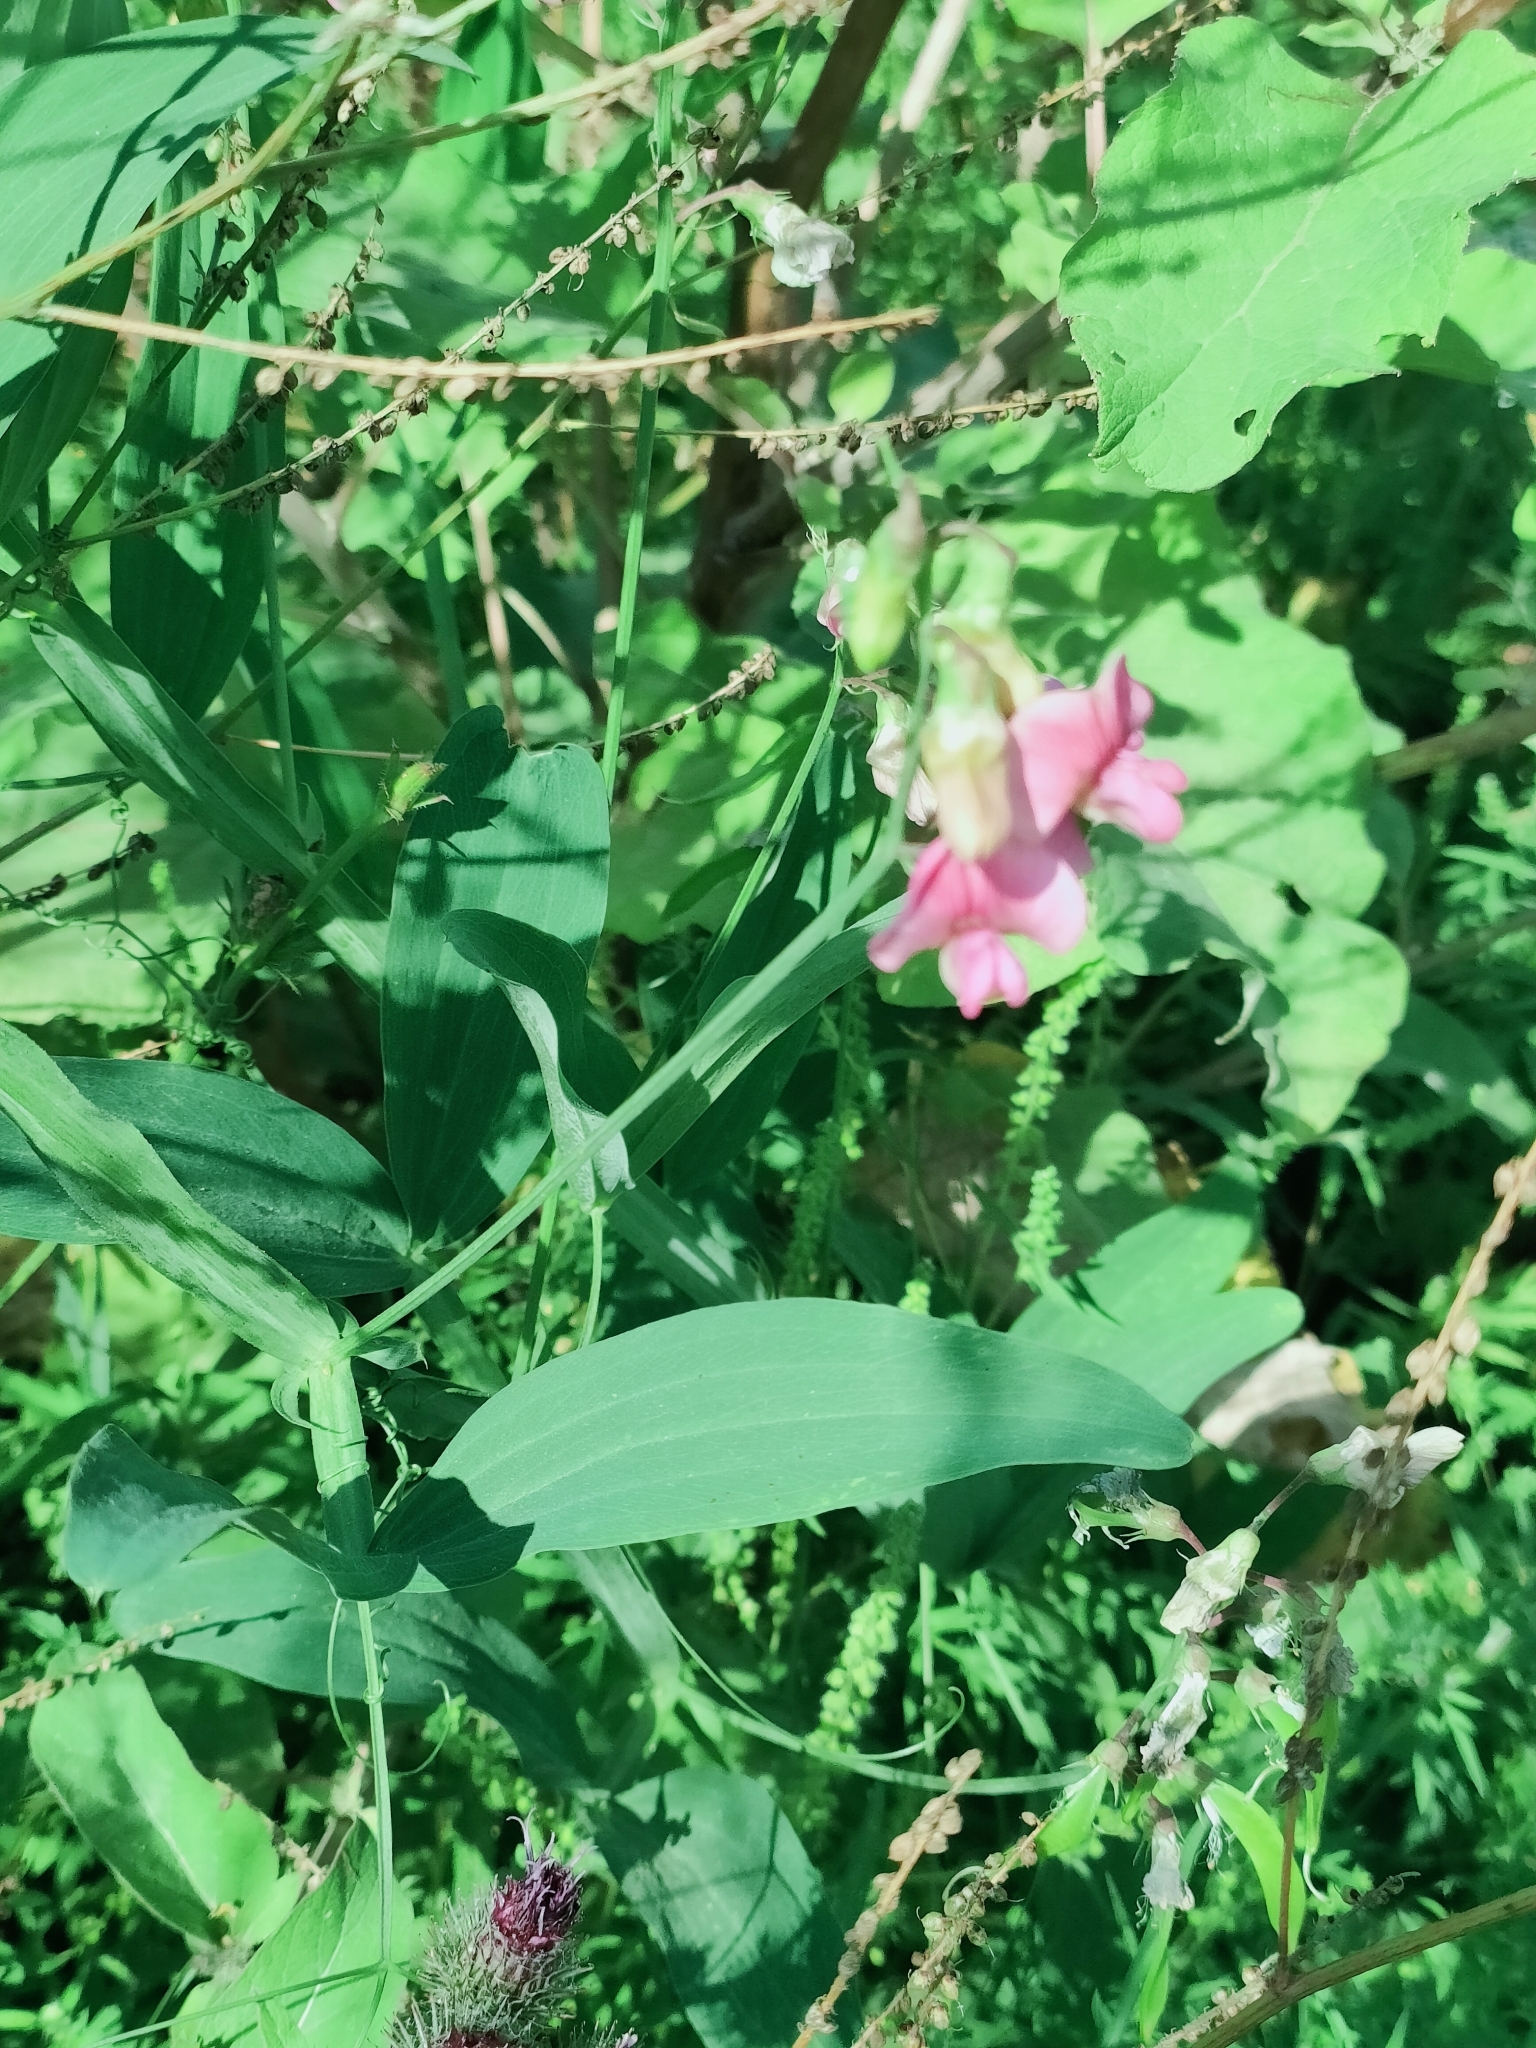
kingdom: Plantae
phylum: Tracheophyta
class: Magnoliopsida
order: Fabales
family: Fabaceae
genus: Lathyrus
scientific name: Lathyrus sylvestris
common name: Flat pea
